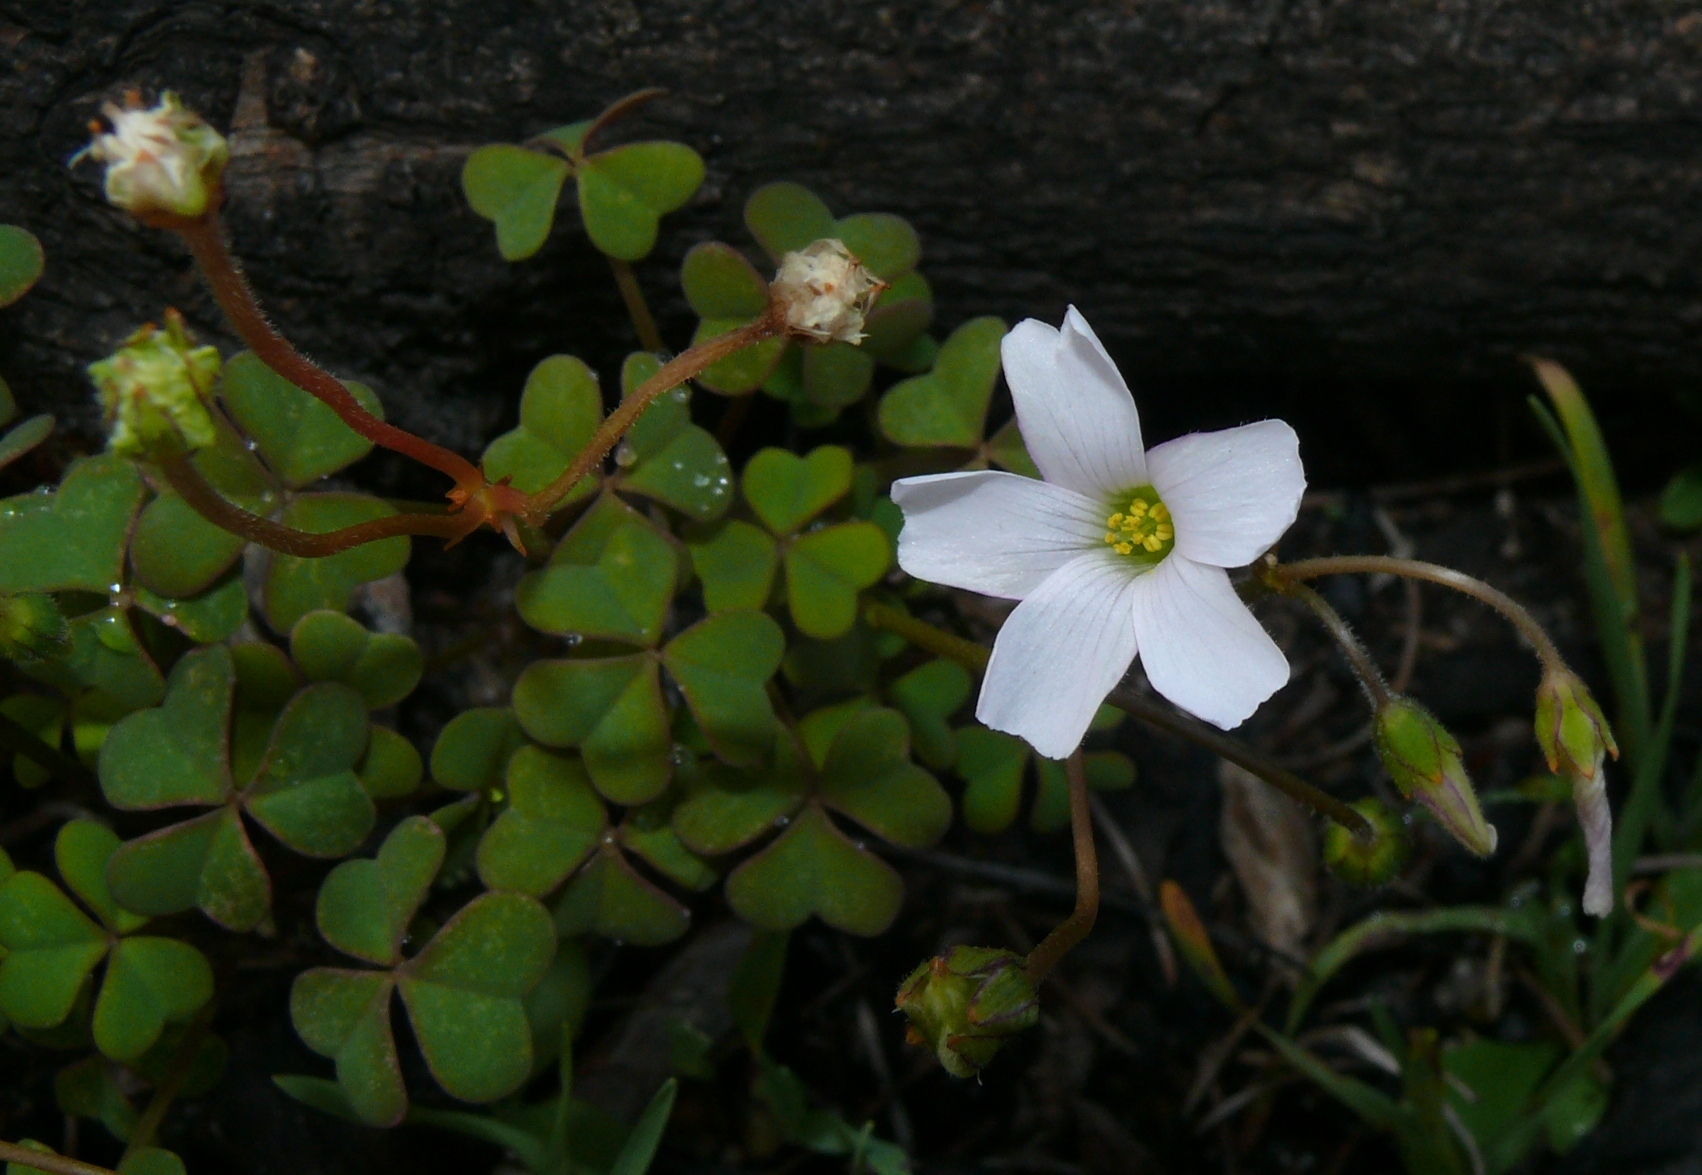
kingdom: Plantae
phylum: Tracheophyta
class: Magnoliopsida
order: Oxalidales
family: Oxalidaceae
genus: Oxalis
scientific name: Oxalis
